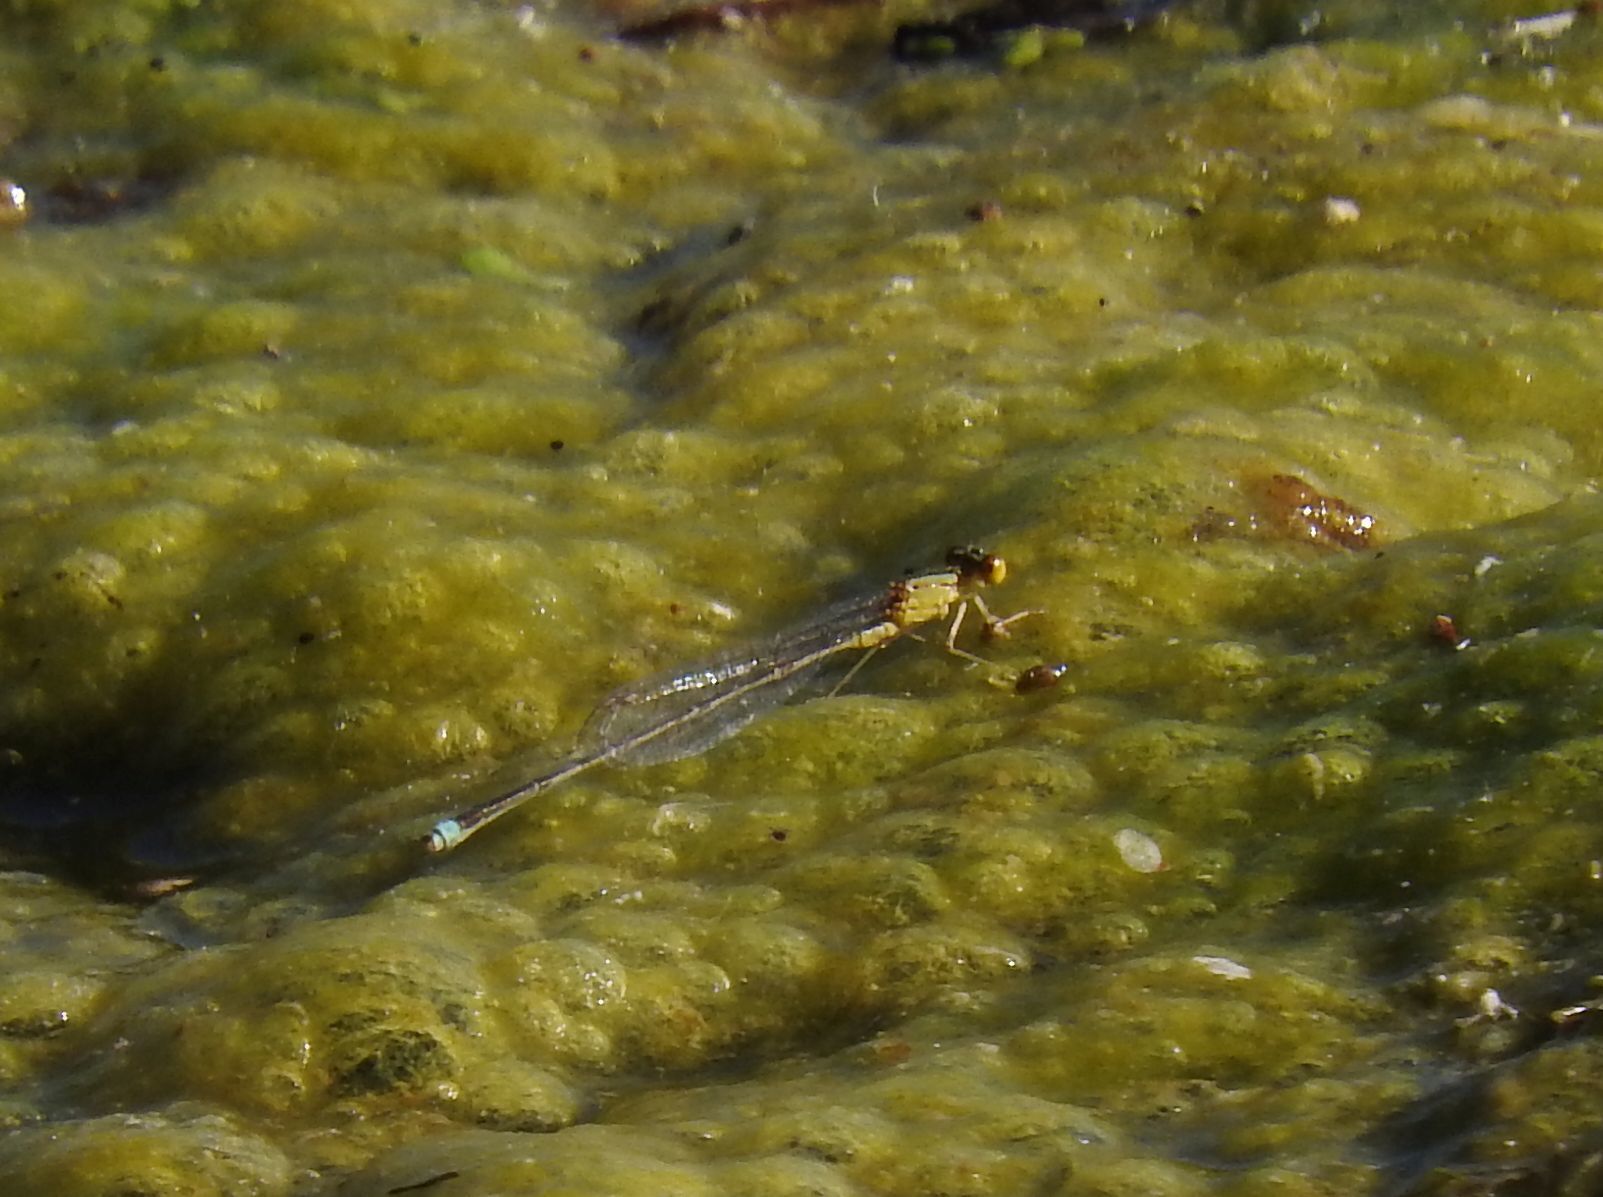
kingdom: Animalia
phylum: Arthropoda
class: Insecta
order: Odonata
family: Coenagrionidae
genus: Enallagma
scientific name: Enallagma vesperum
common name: Vesper bluet
